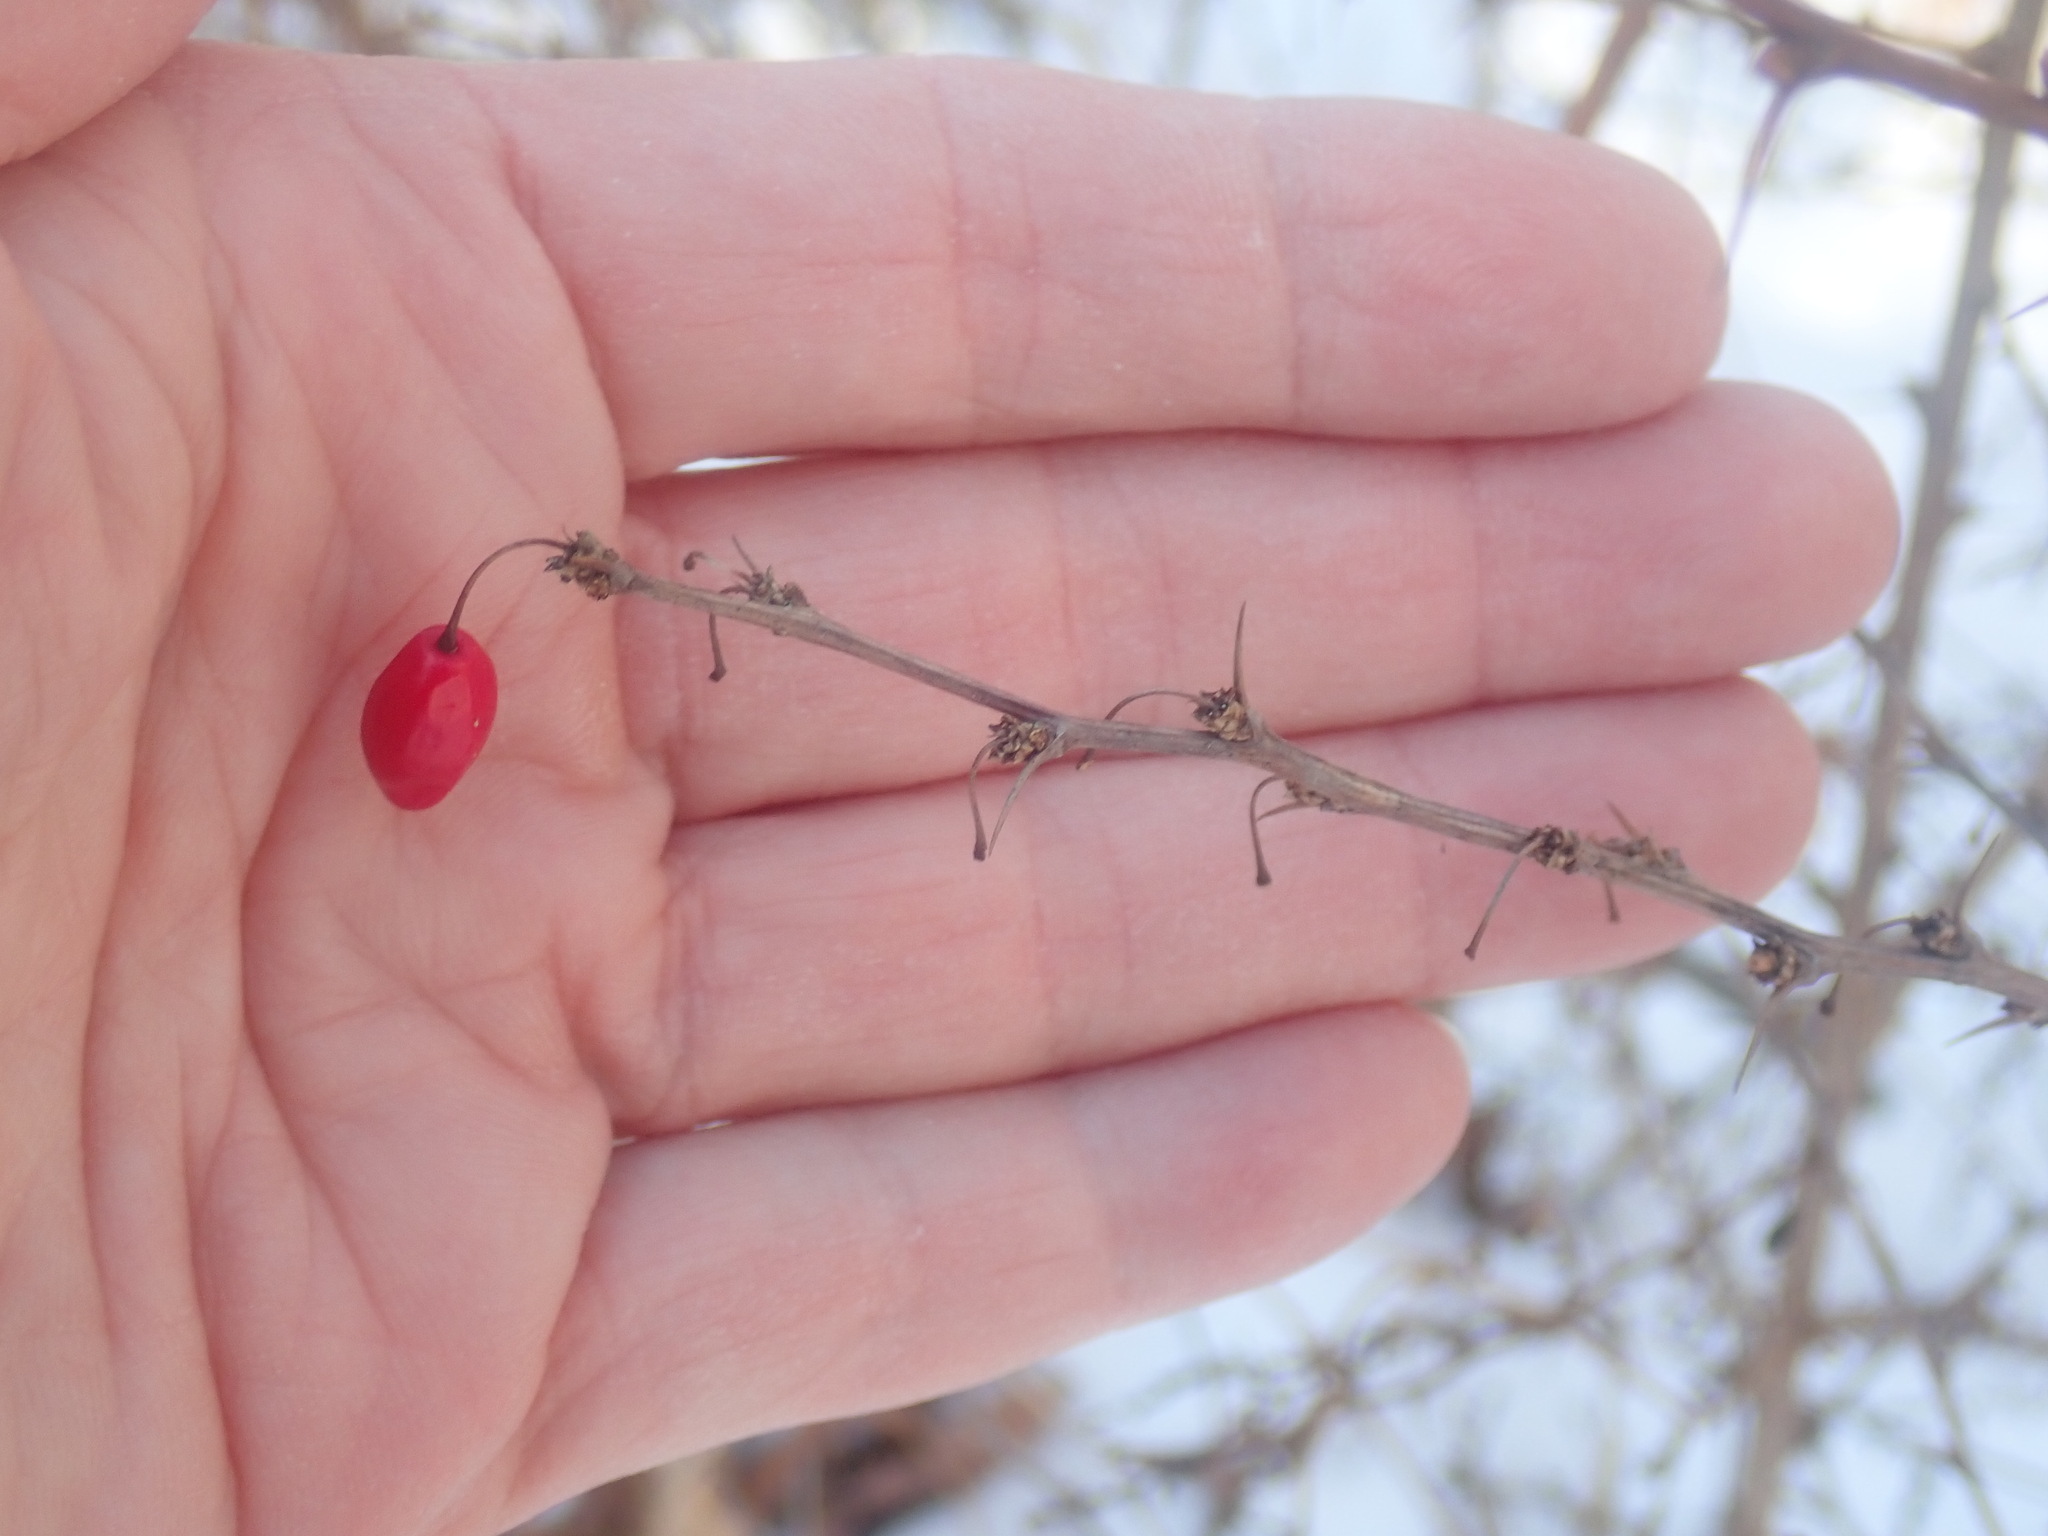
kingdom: Plantae
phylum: Tracheophyta
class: Magnoliopsida
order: Ranunculales
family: Berberidaceae
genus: Berberis
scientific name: Berberis thunbergii
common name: Japanese barberry
